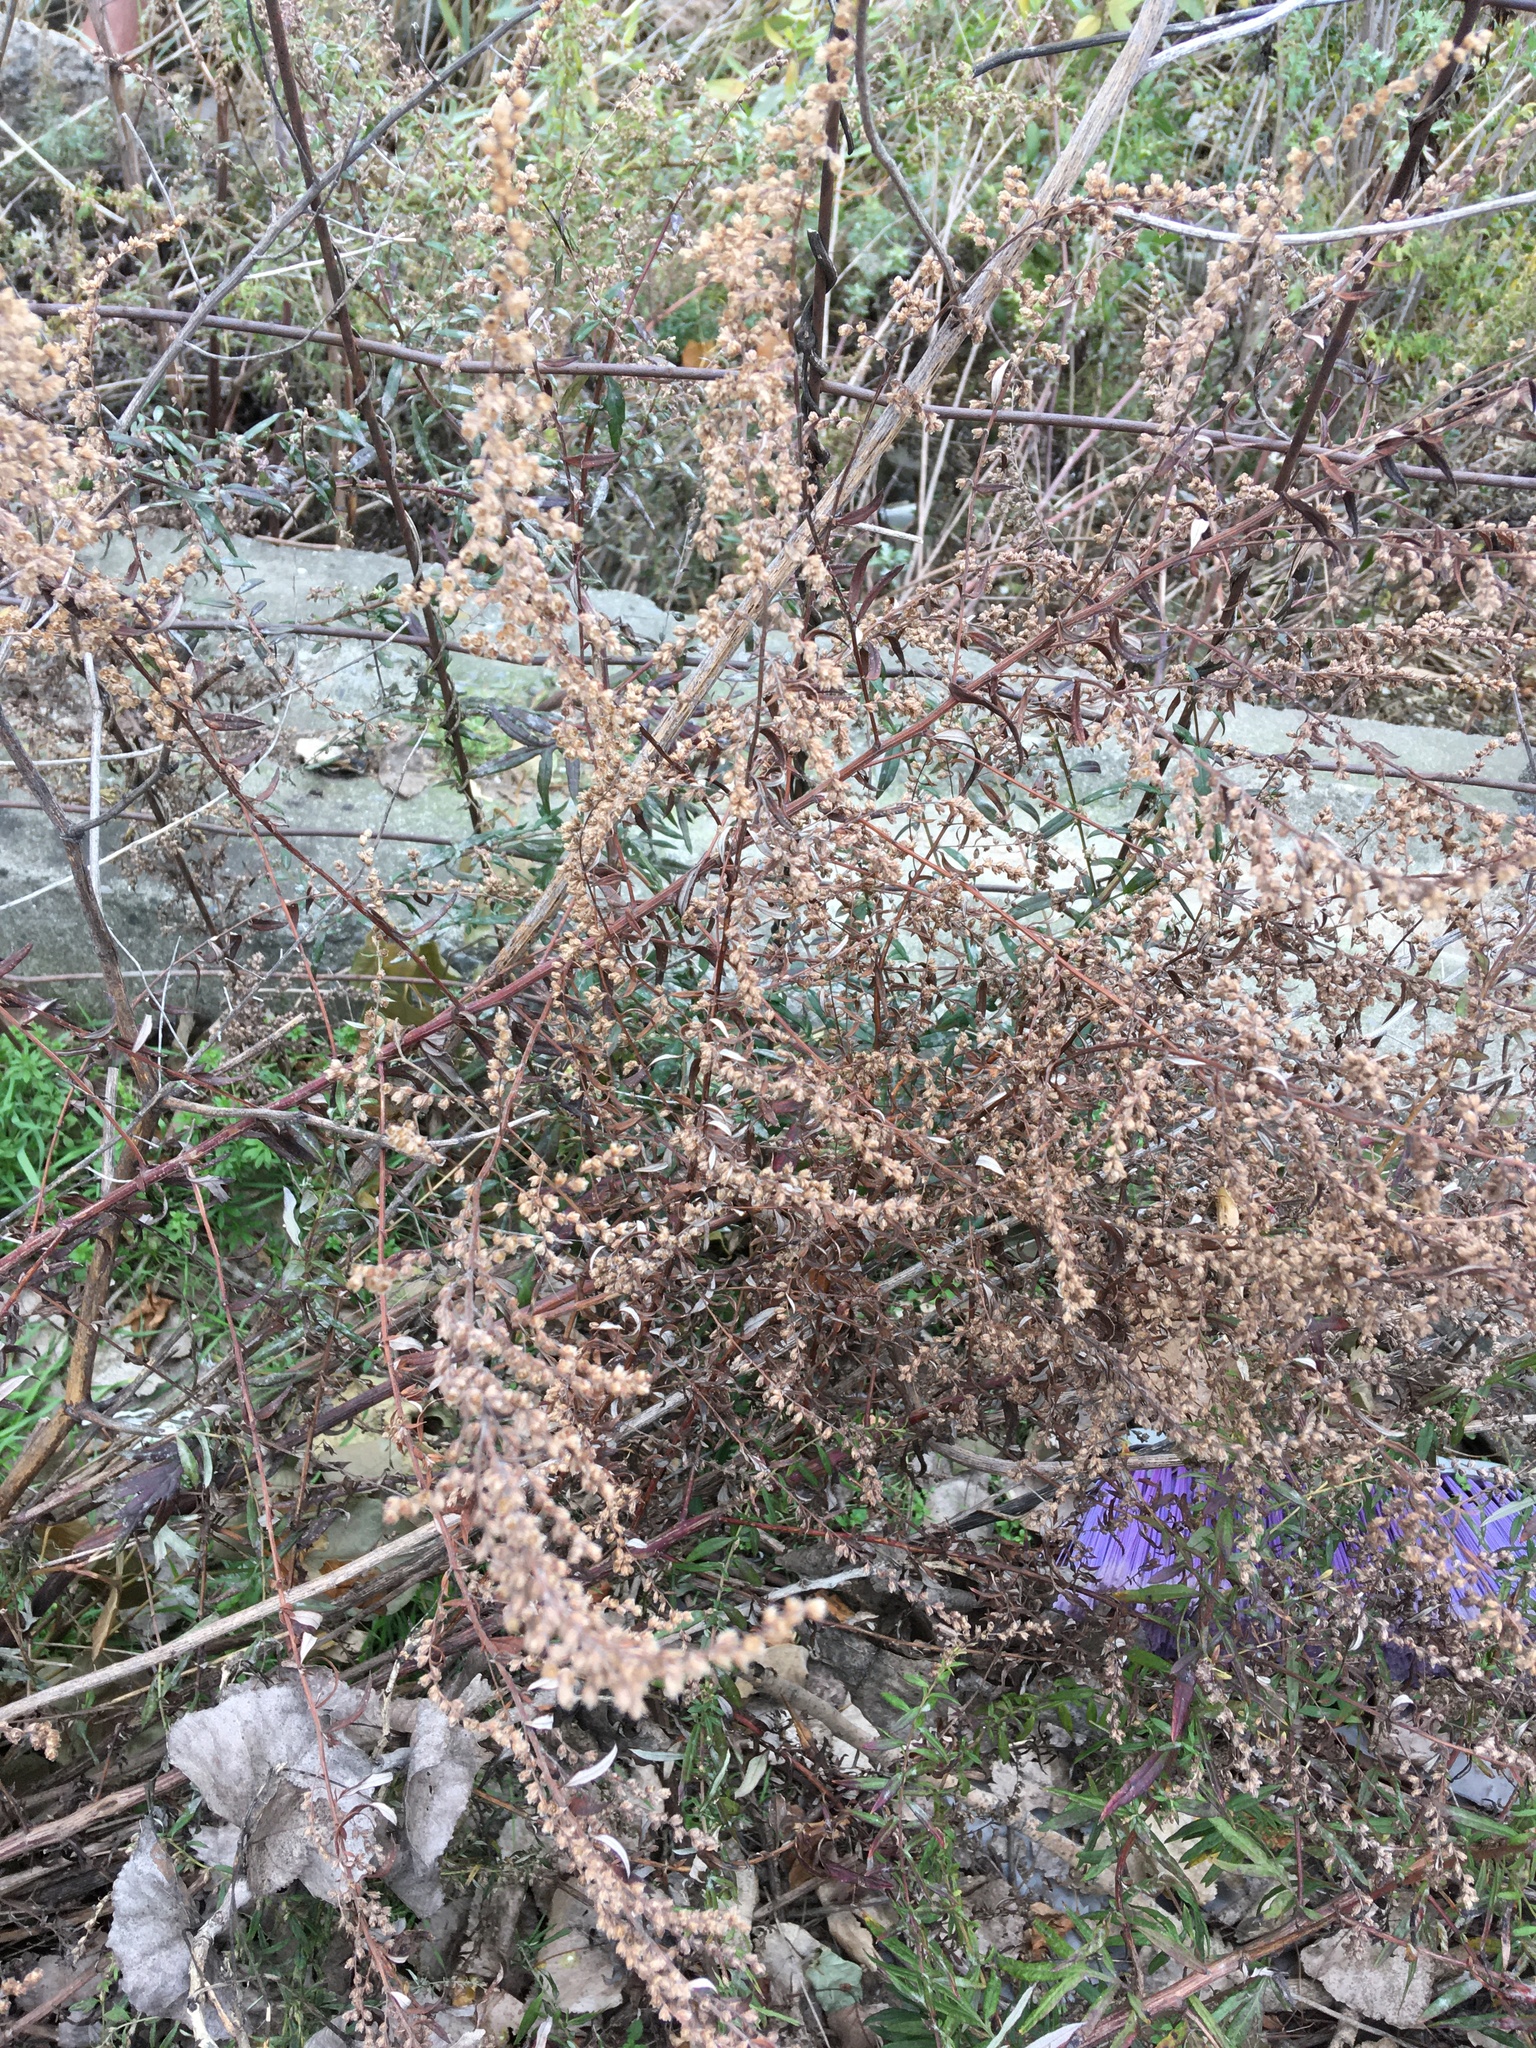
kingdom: Plantae
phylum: Tracheophyta
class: Magnoliopsida
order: Asterales
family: Asteraceae
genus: Artemisia
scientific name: Artemisia vulgaris
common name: Mugwort
